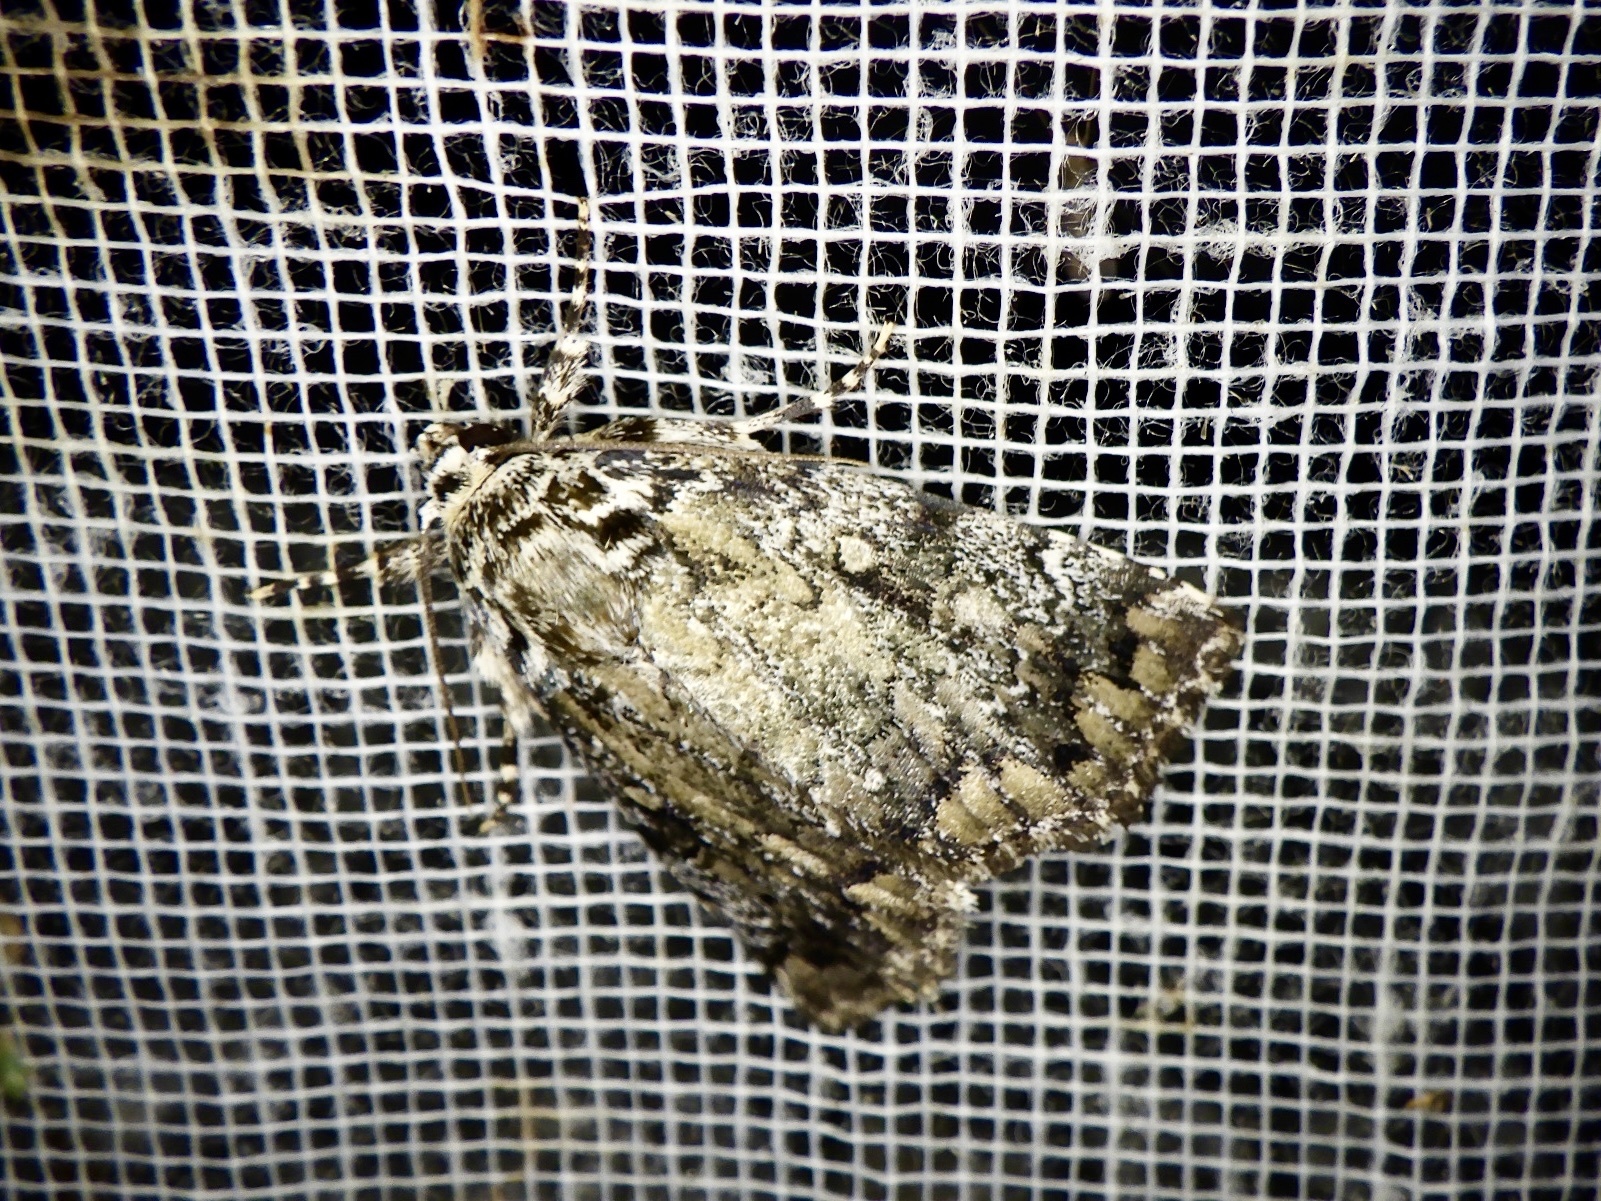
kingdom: Animalia
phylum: Arthropoda
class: Insecta
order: Lepidoptera
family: Noctuidae
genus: Anacronicta
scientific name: Anacronicta plumbea
